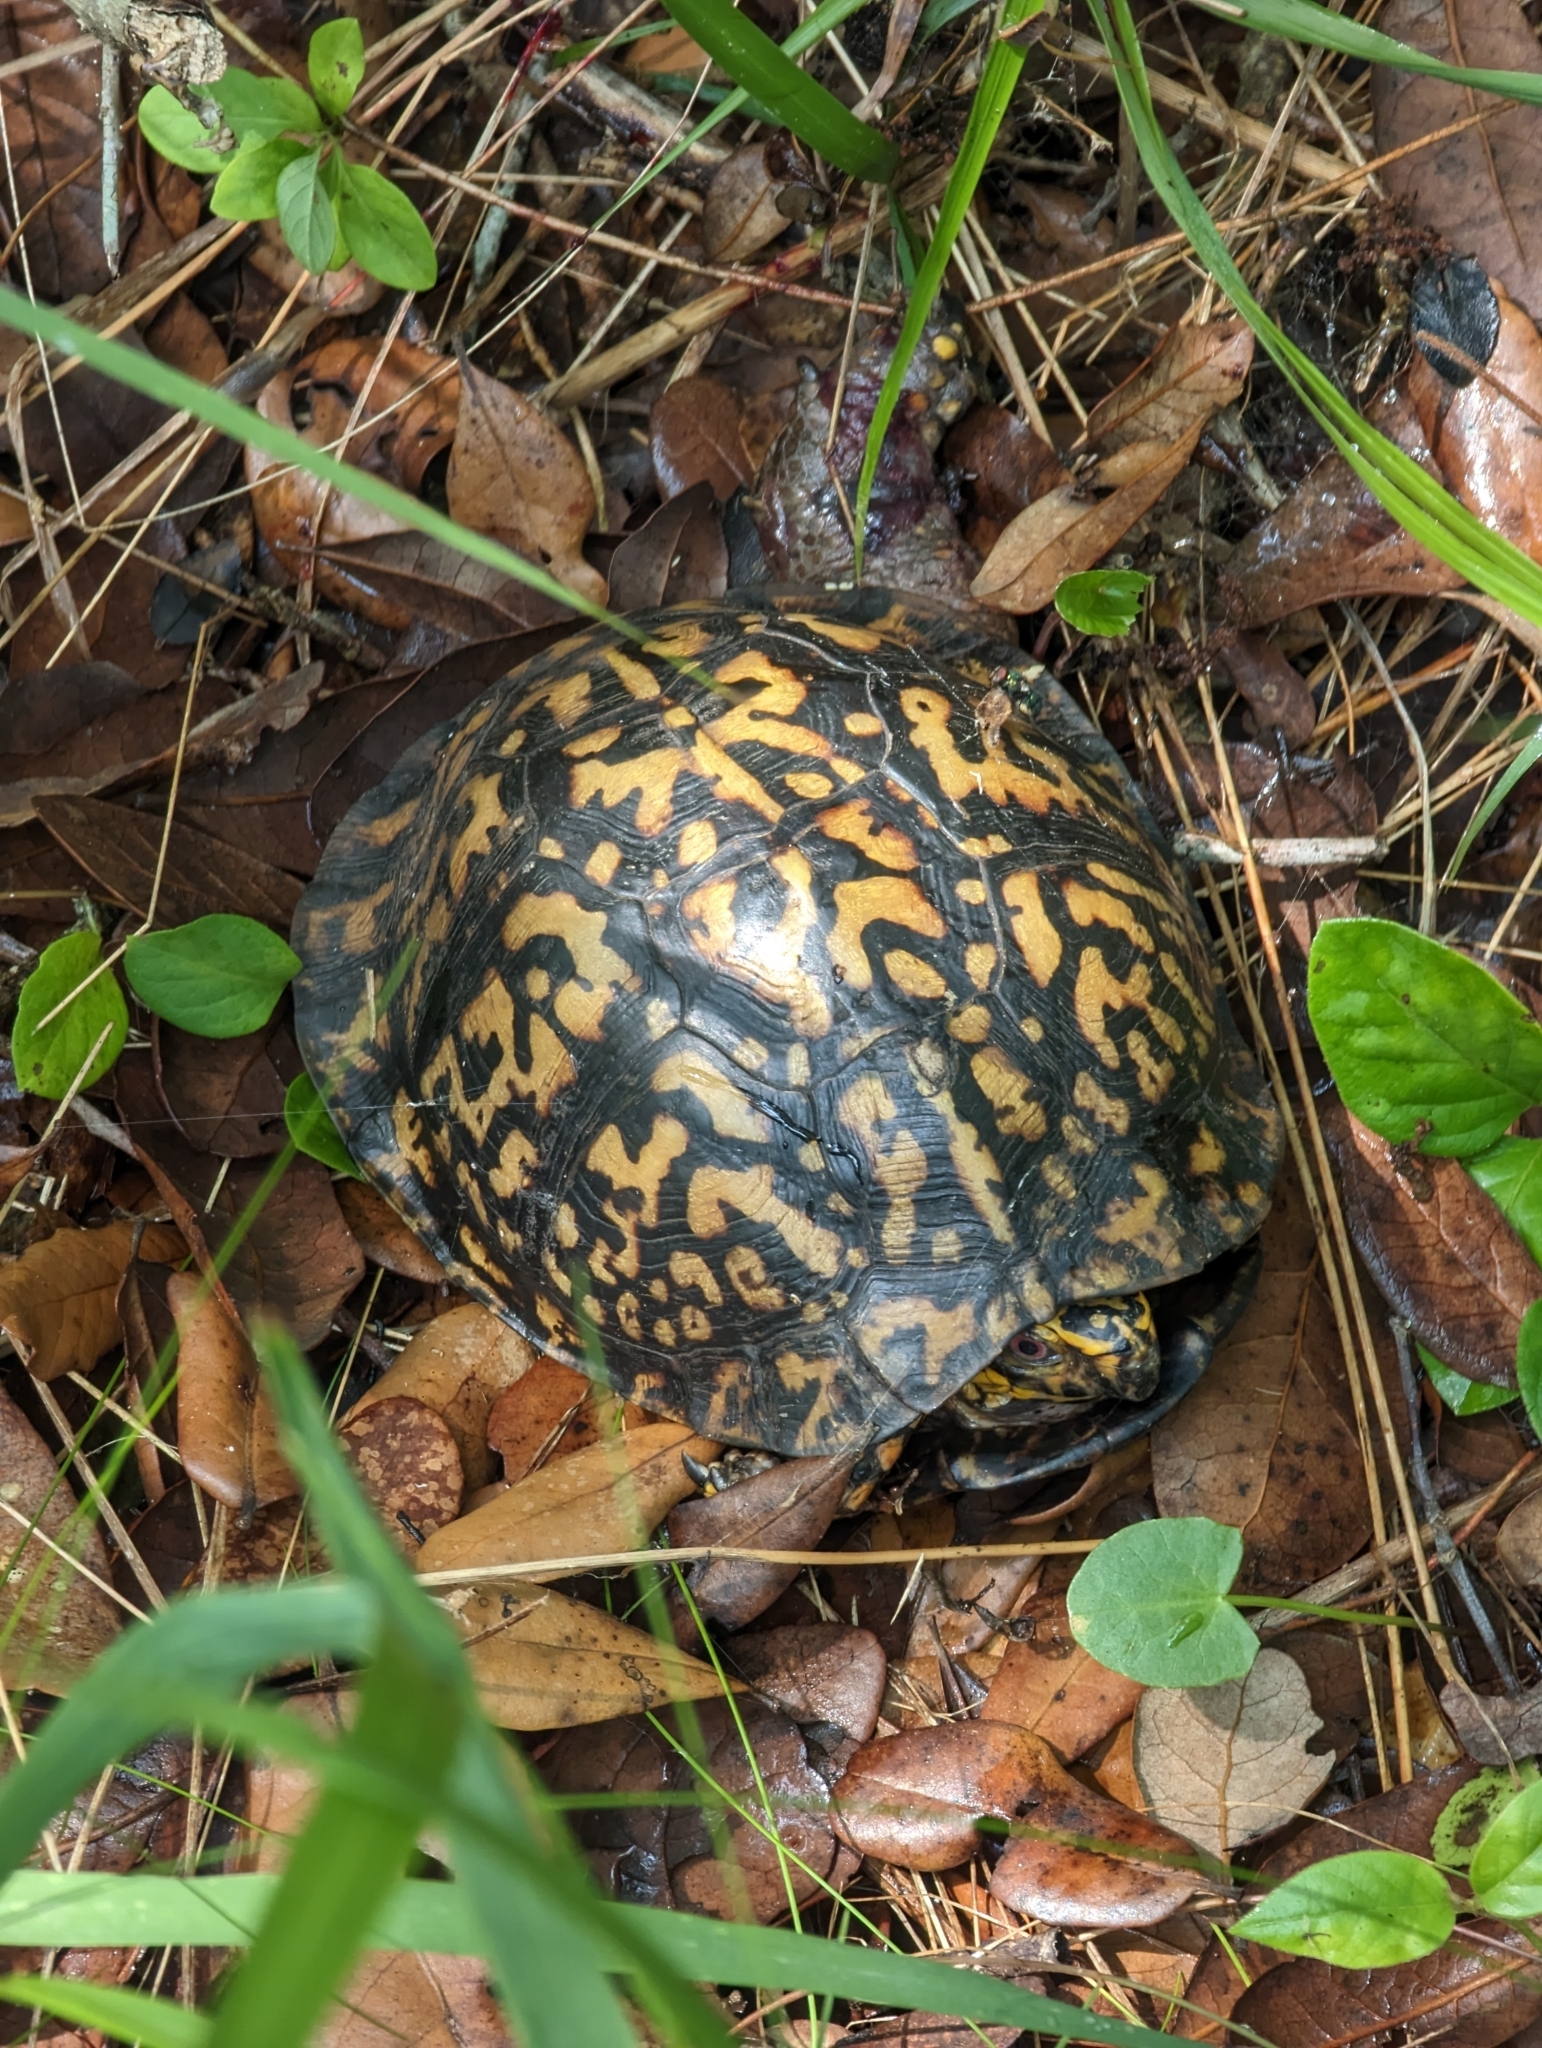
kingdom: Animalia
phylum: Chordata
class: Testudines
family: Emydidae
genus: Terrapene
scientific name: Terrapene carolina
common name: Common box turtle
